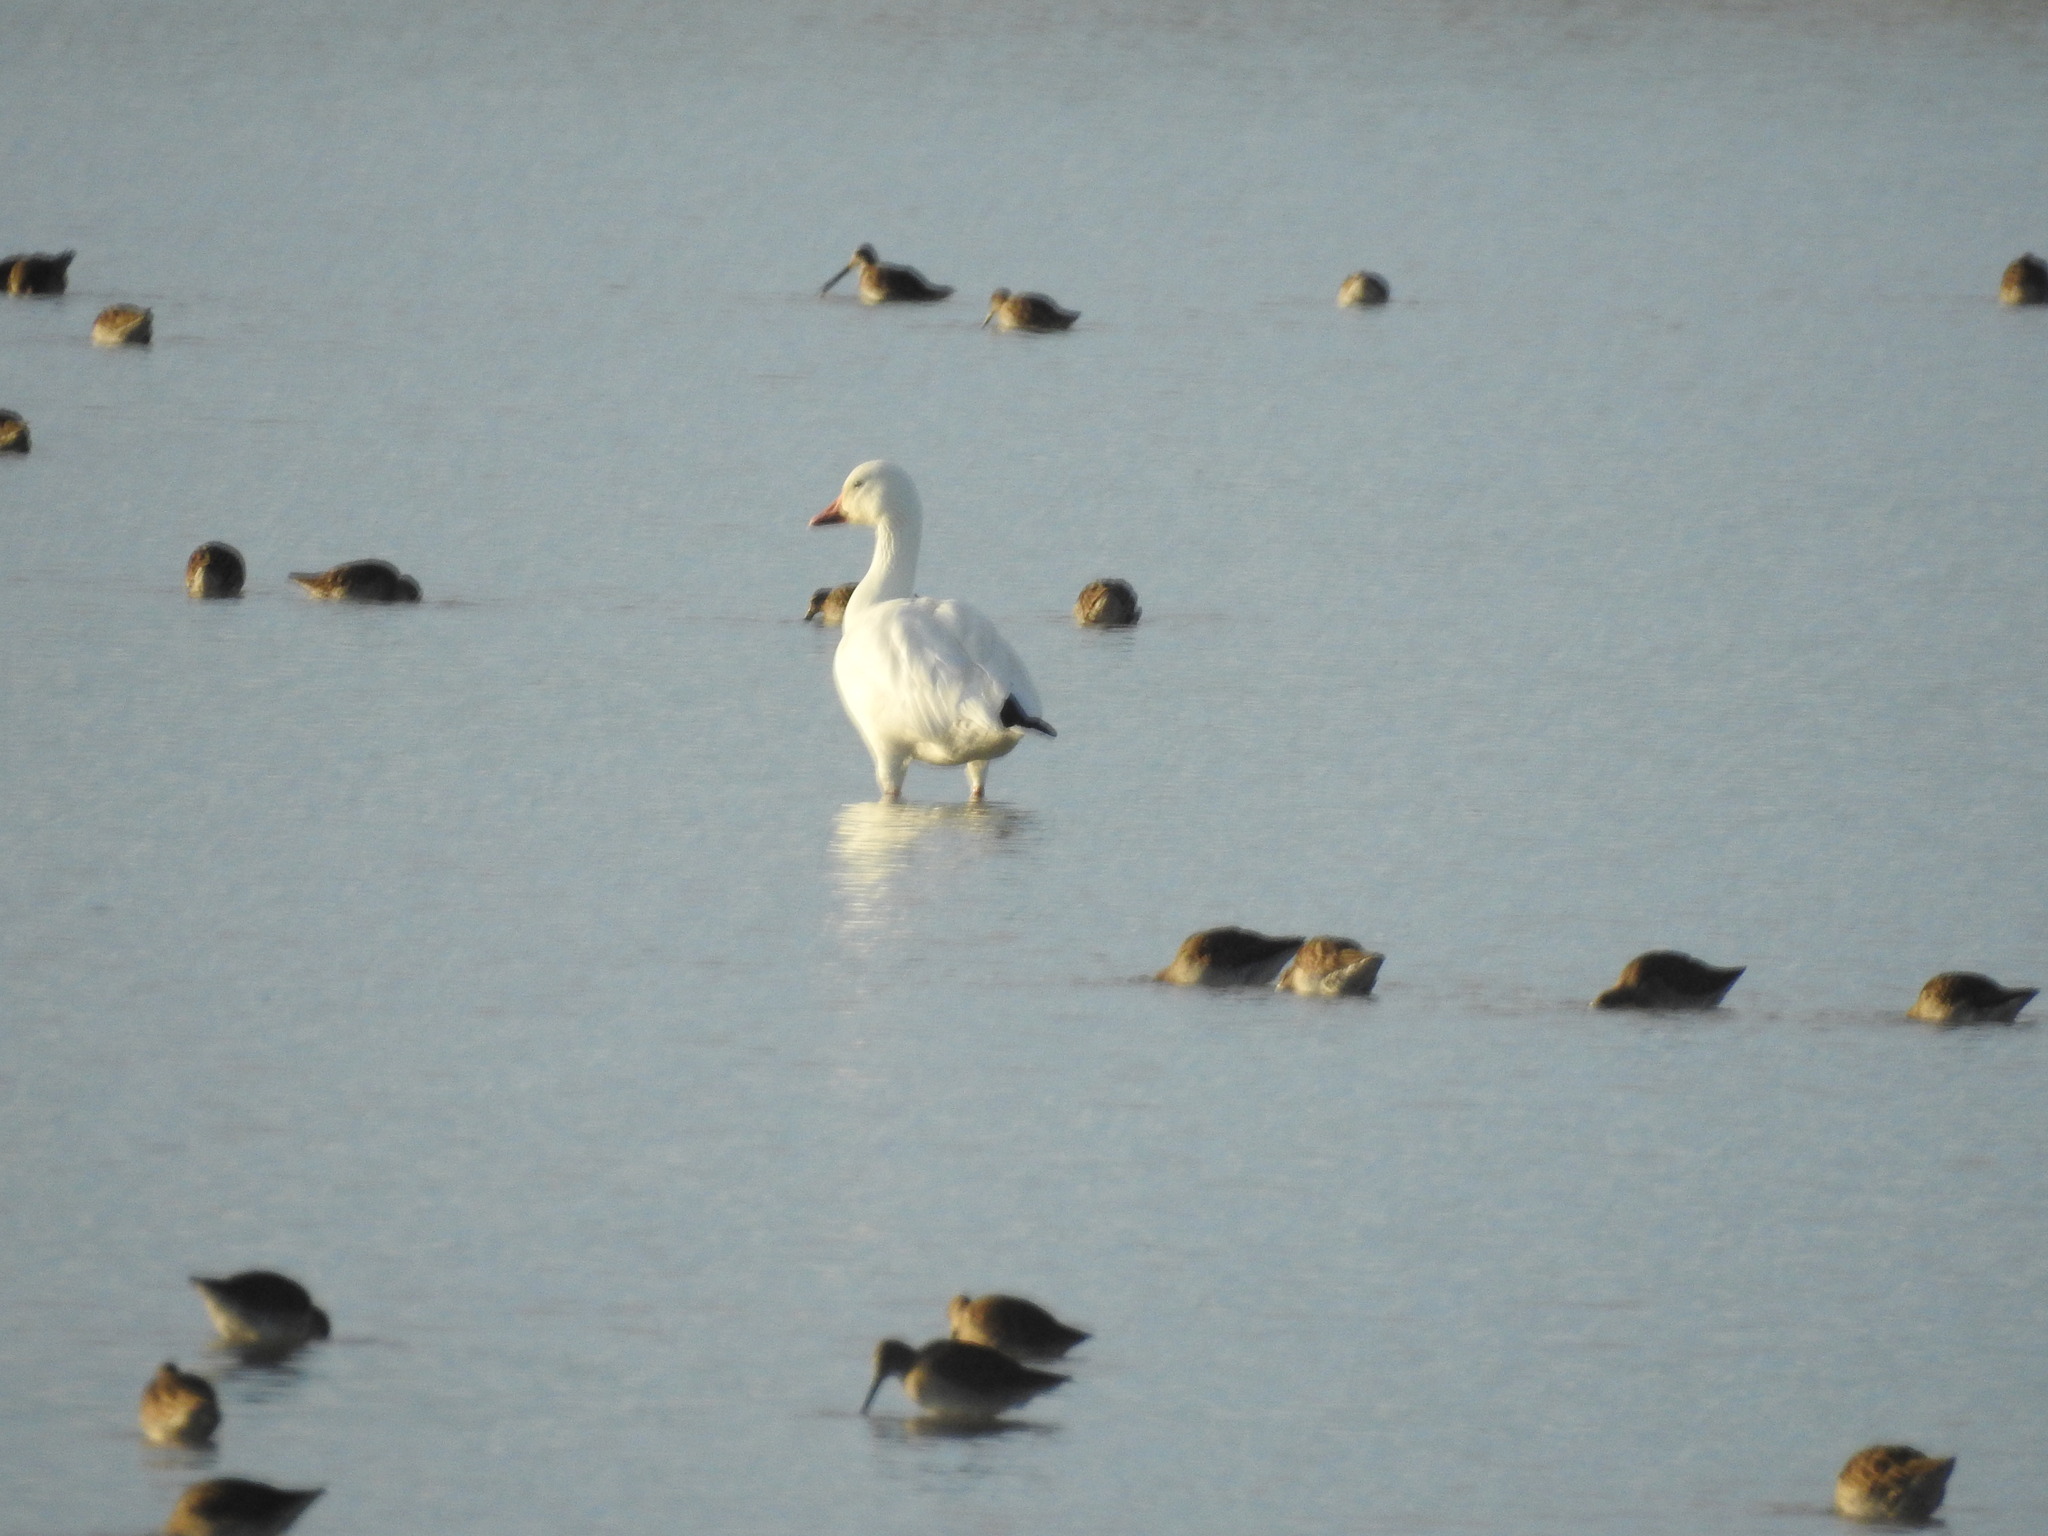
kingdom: Animalia
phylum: Chordata
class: Aves
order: Anseriformes
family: Anatidae
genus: Anser
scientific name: Anser caerulescens
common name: Snow goose
